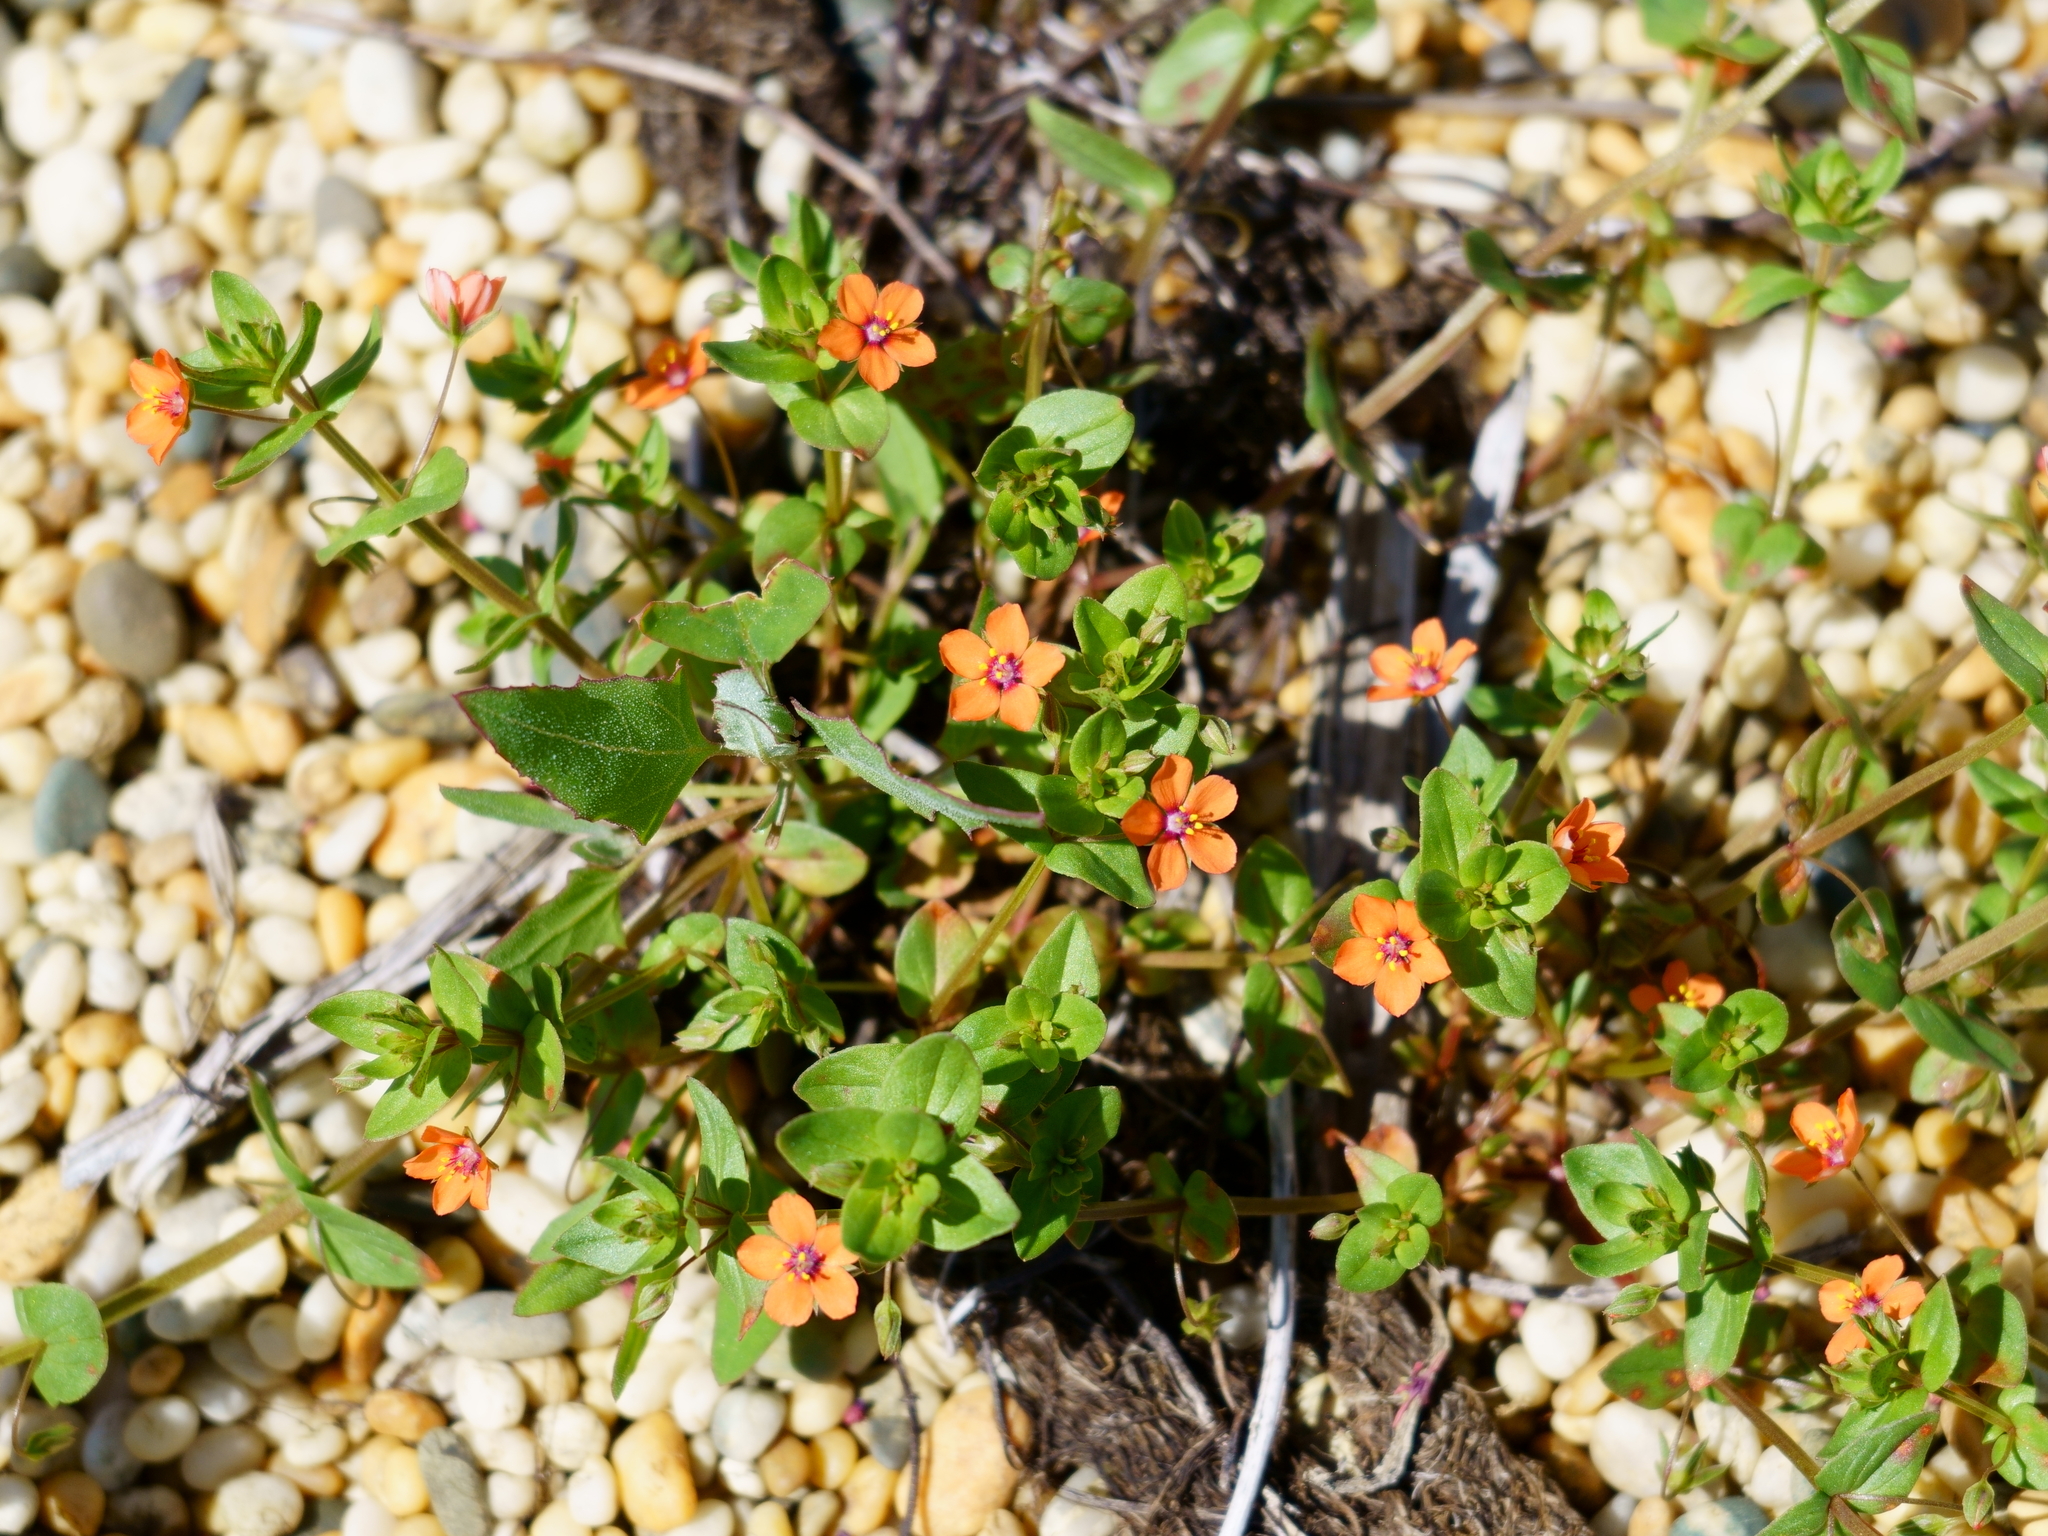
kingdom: Plantae
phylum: Tracheophyta
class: Magnoliopsida
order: Ericales
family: Primulaceae
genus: Lysimachia
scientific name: Lysimachia arvensis
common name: Scarlet pimpernel
